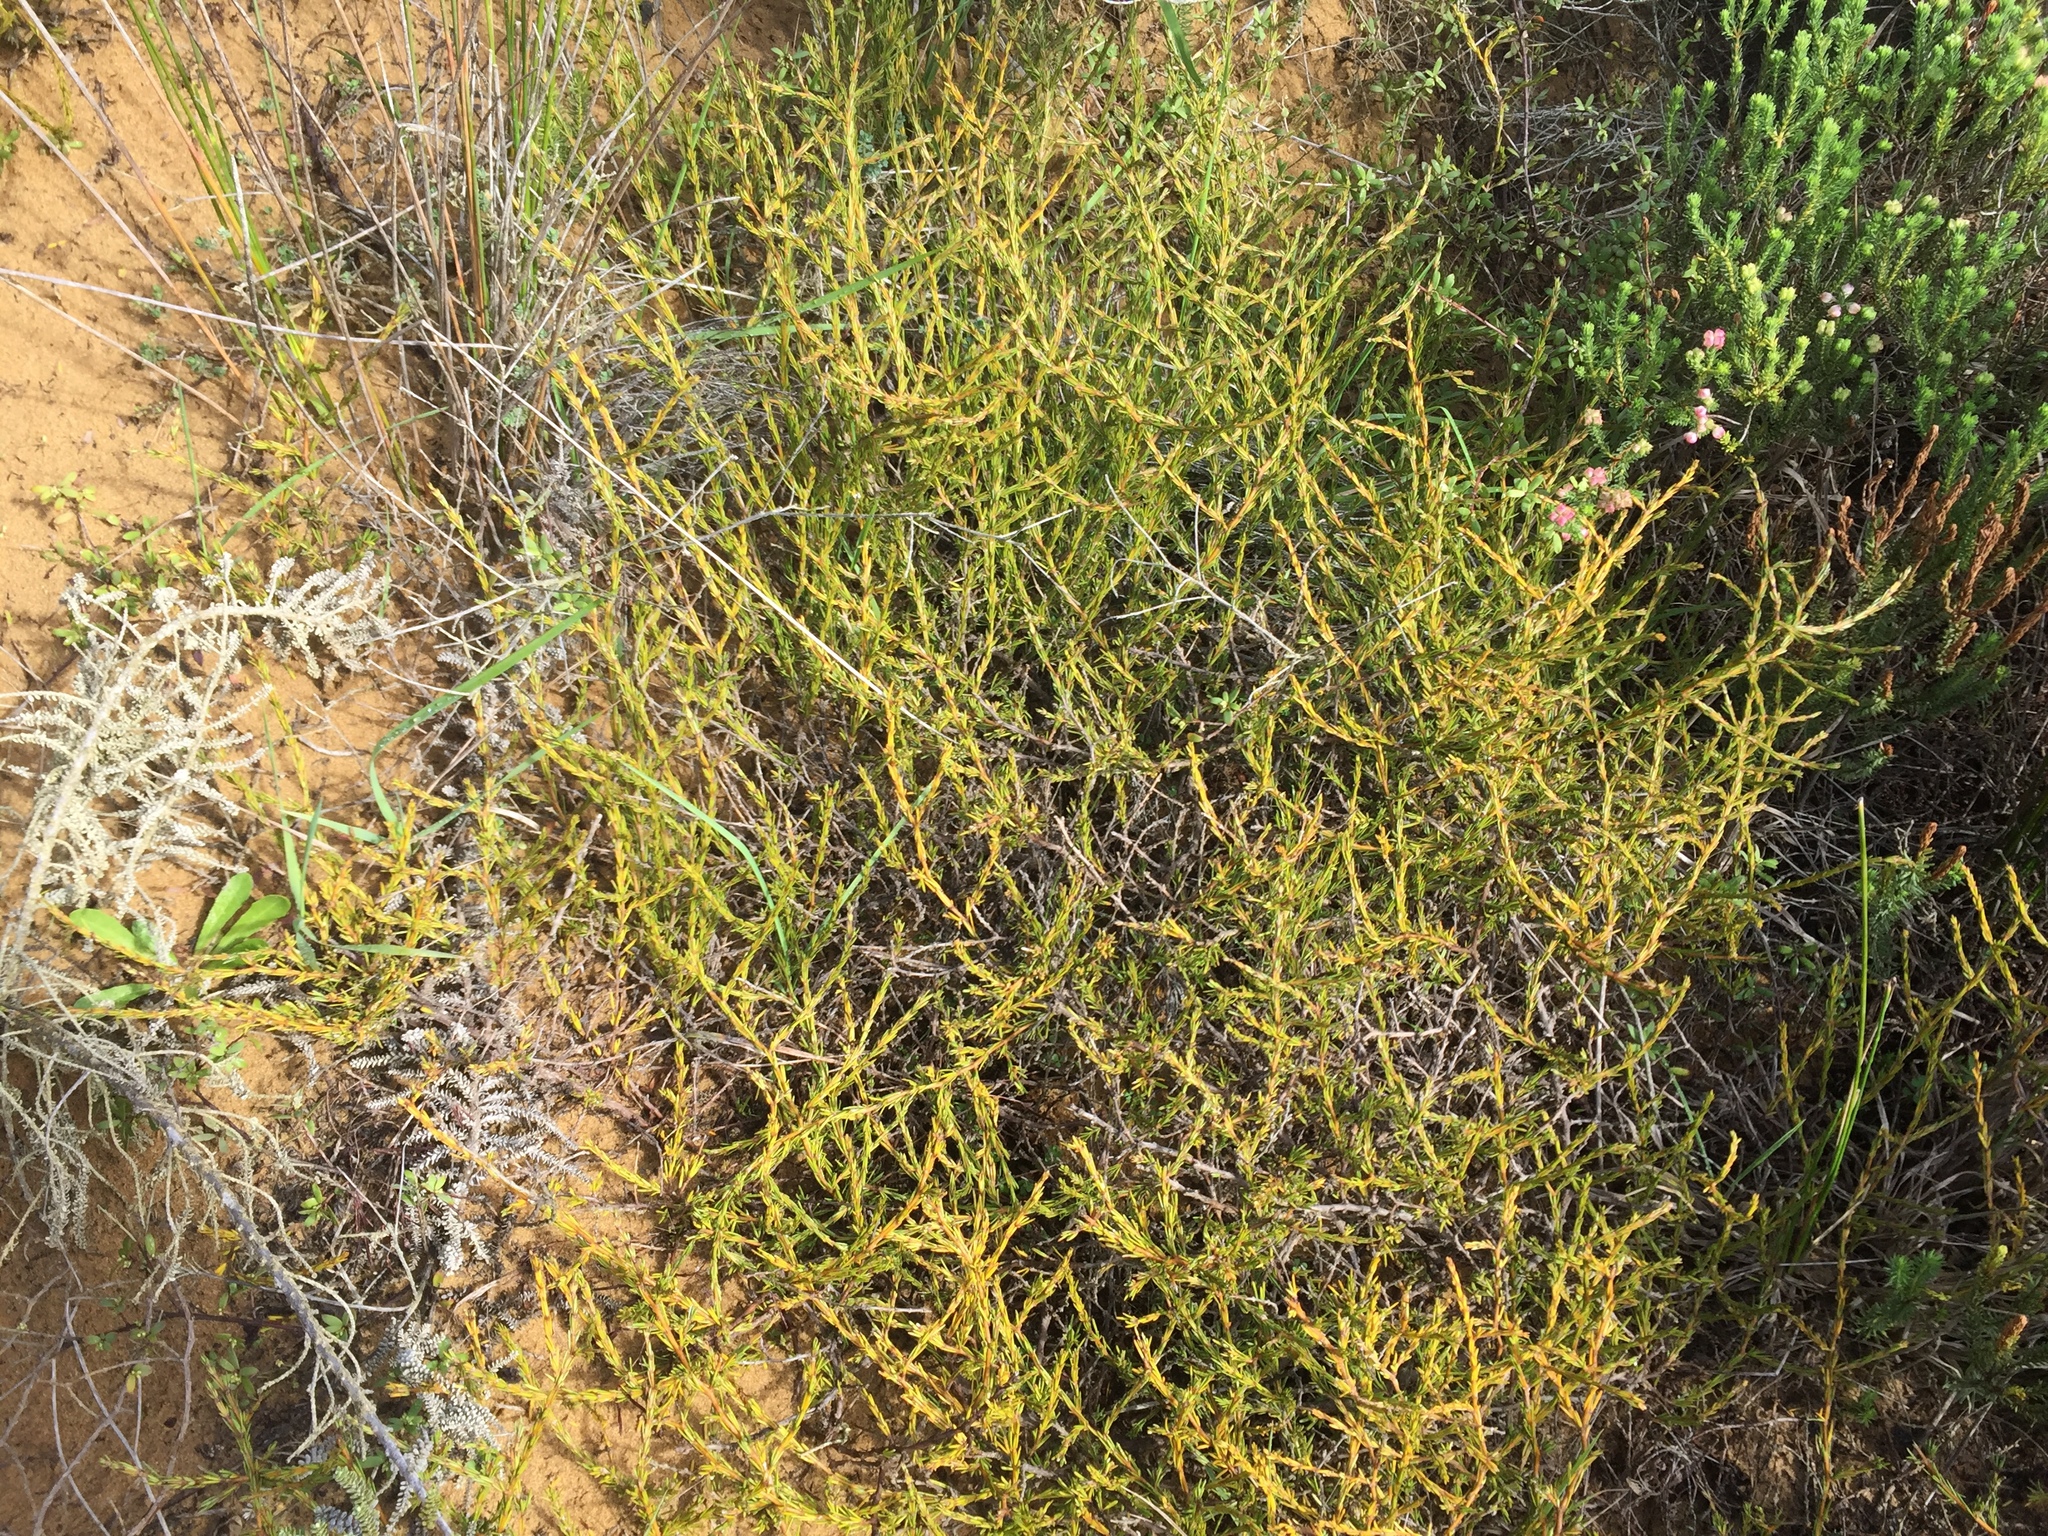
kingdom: Plantae
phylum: Tracheophyta
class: Magnoliopsida
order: Gentianales
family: Rubiaceae
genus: Coprosma
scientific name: Coprosma acerosa
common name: Sand coprosma
